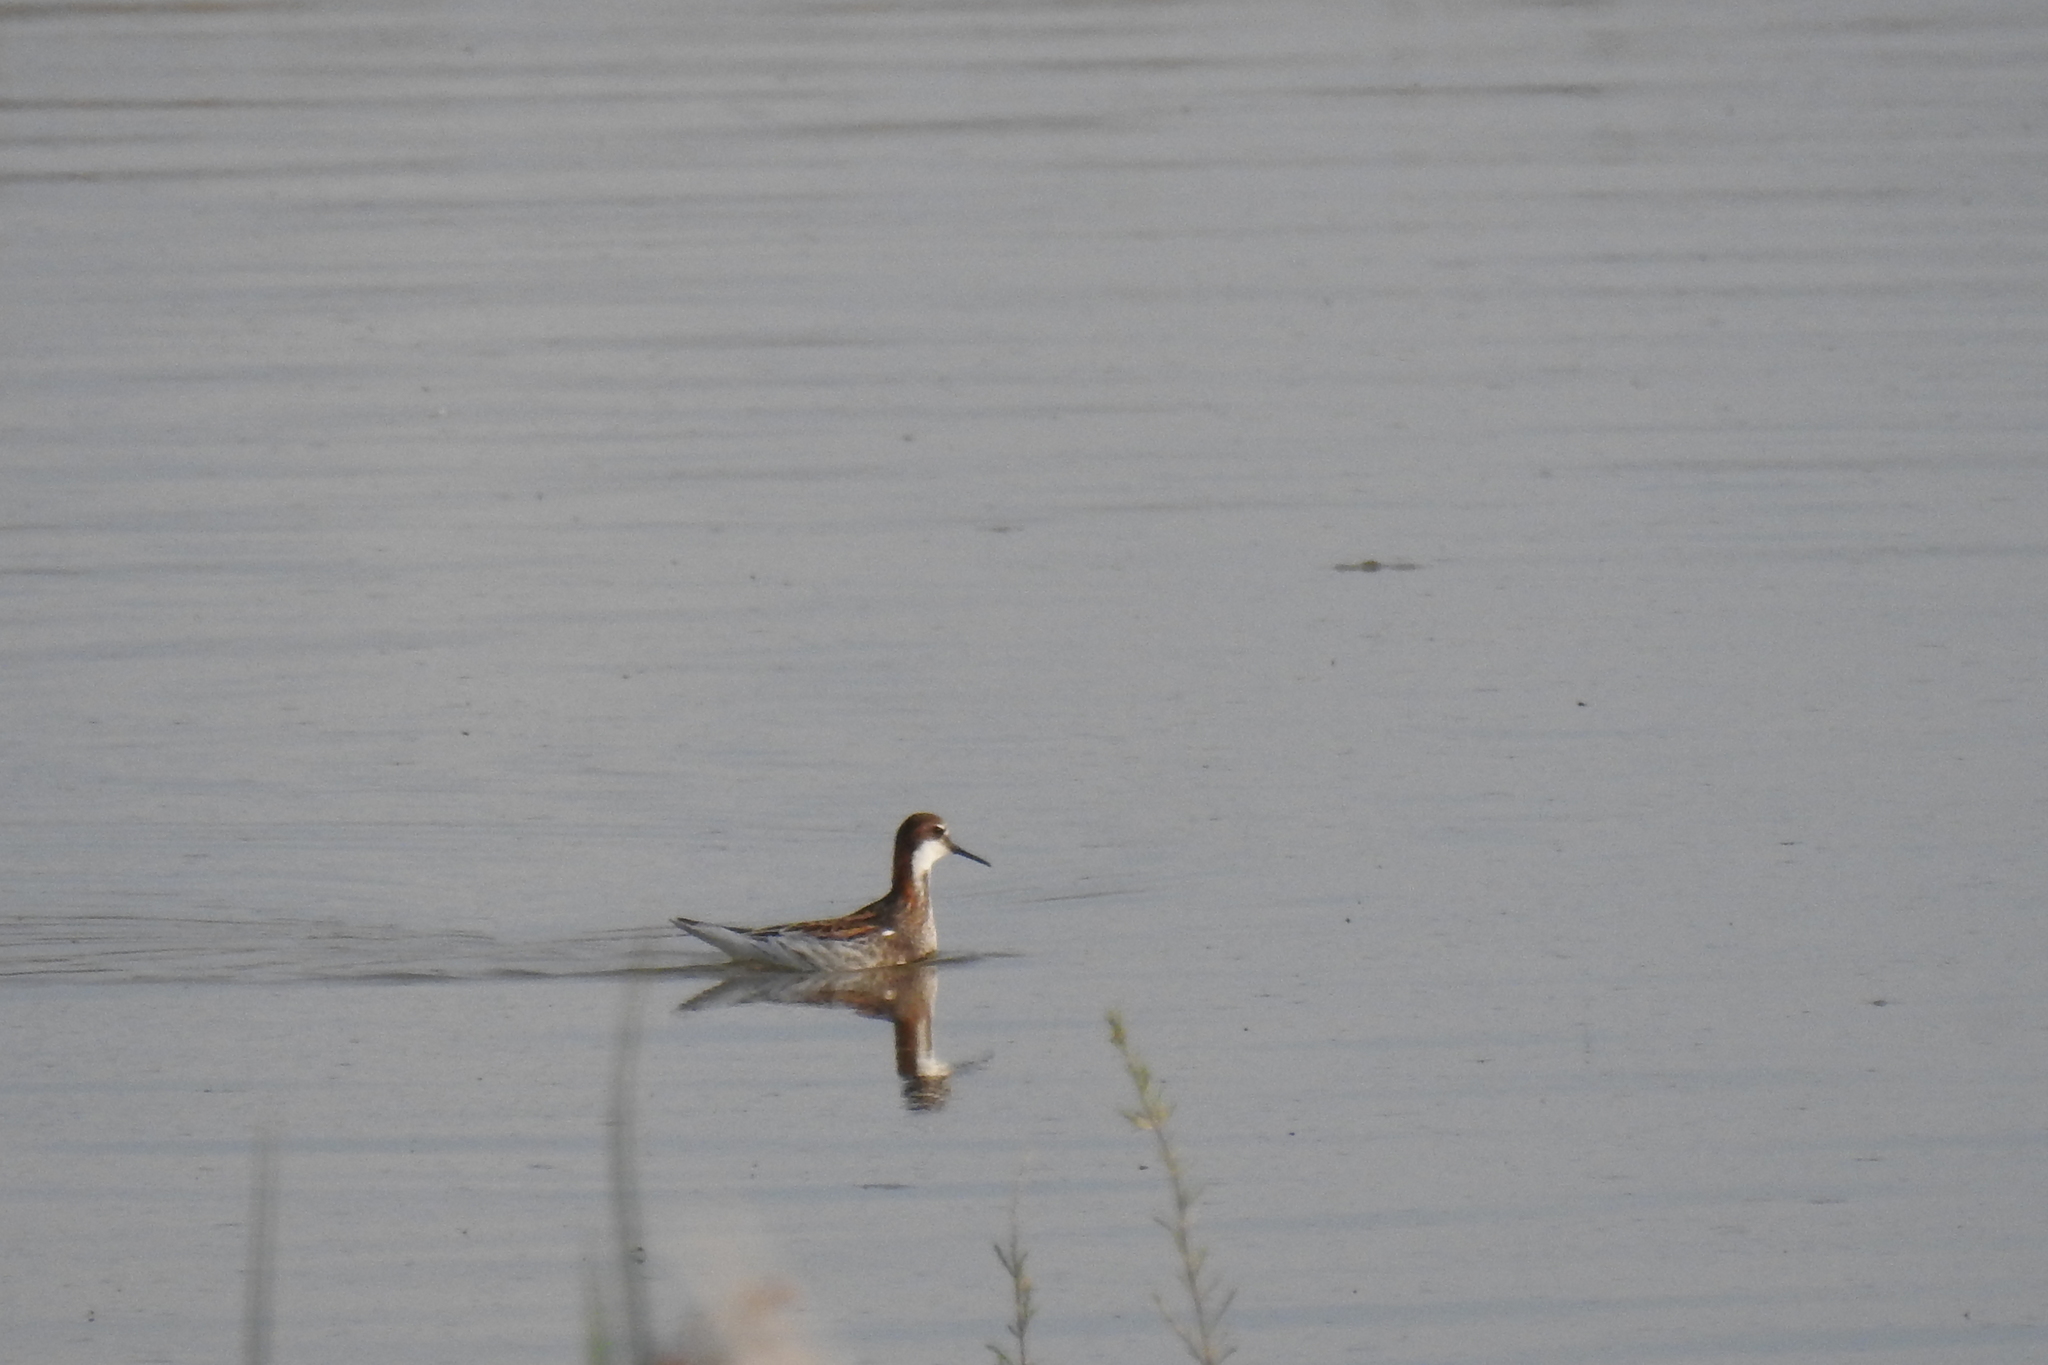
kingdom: Animalia
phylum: Chordata
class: Aves
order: Charadriiformes
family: Scolopacidae
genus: Phalaropus
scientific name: Phalaropus lobatus
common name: Red-necked phalarope
